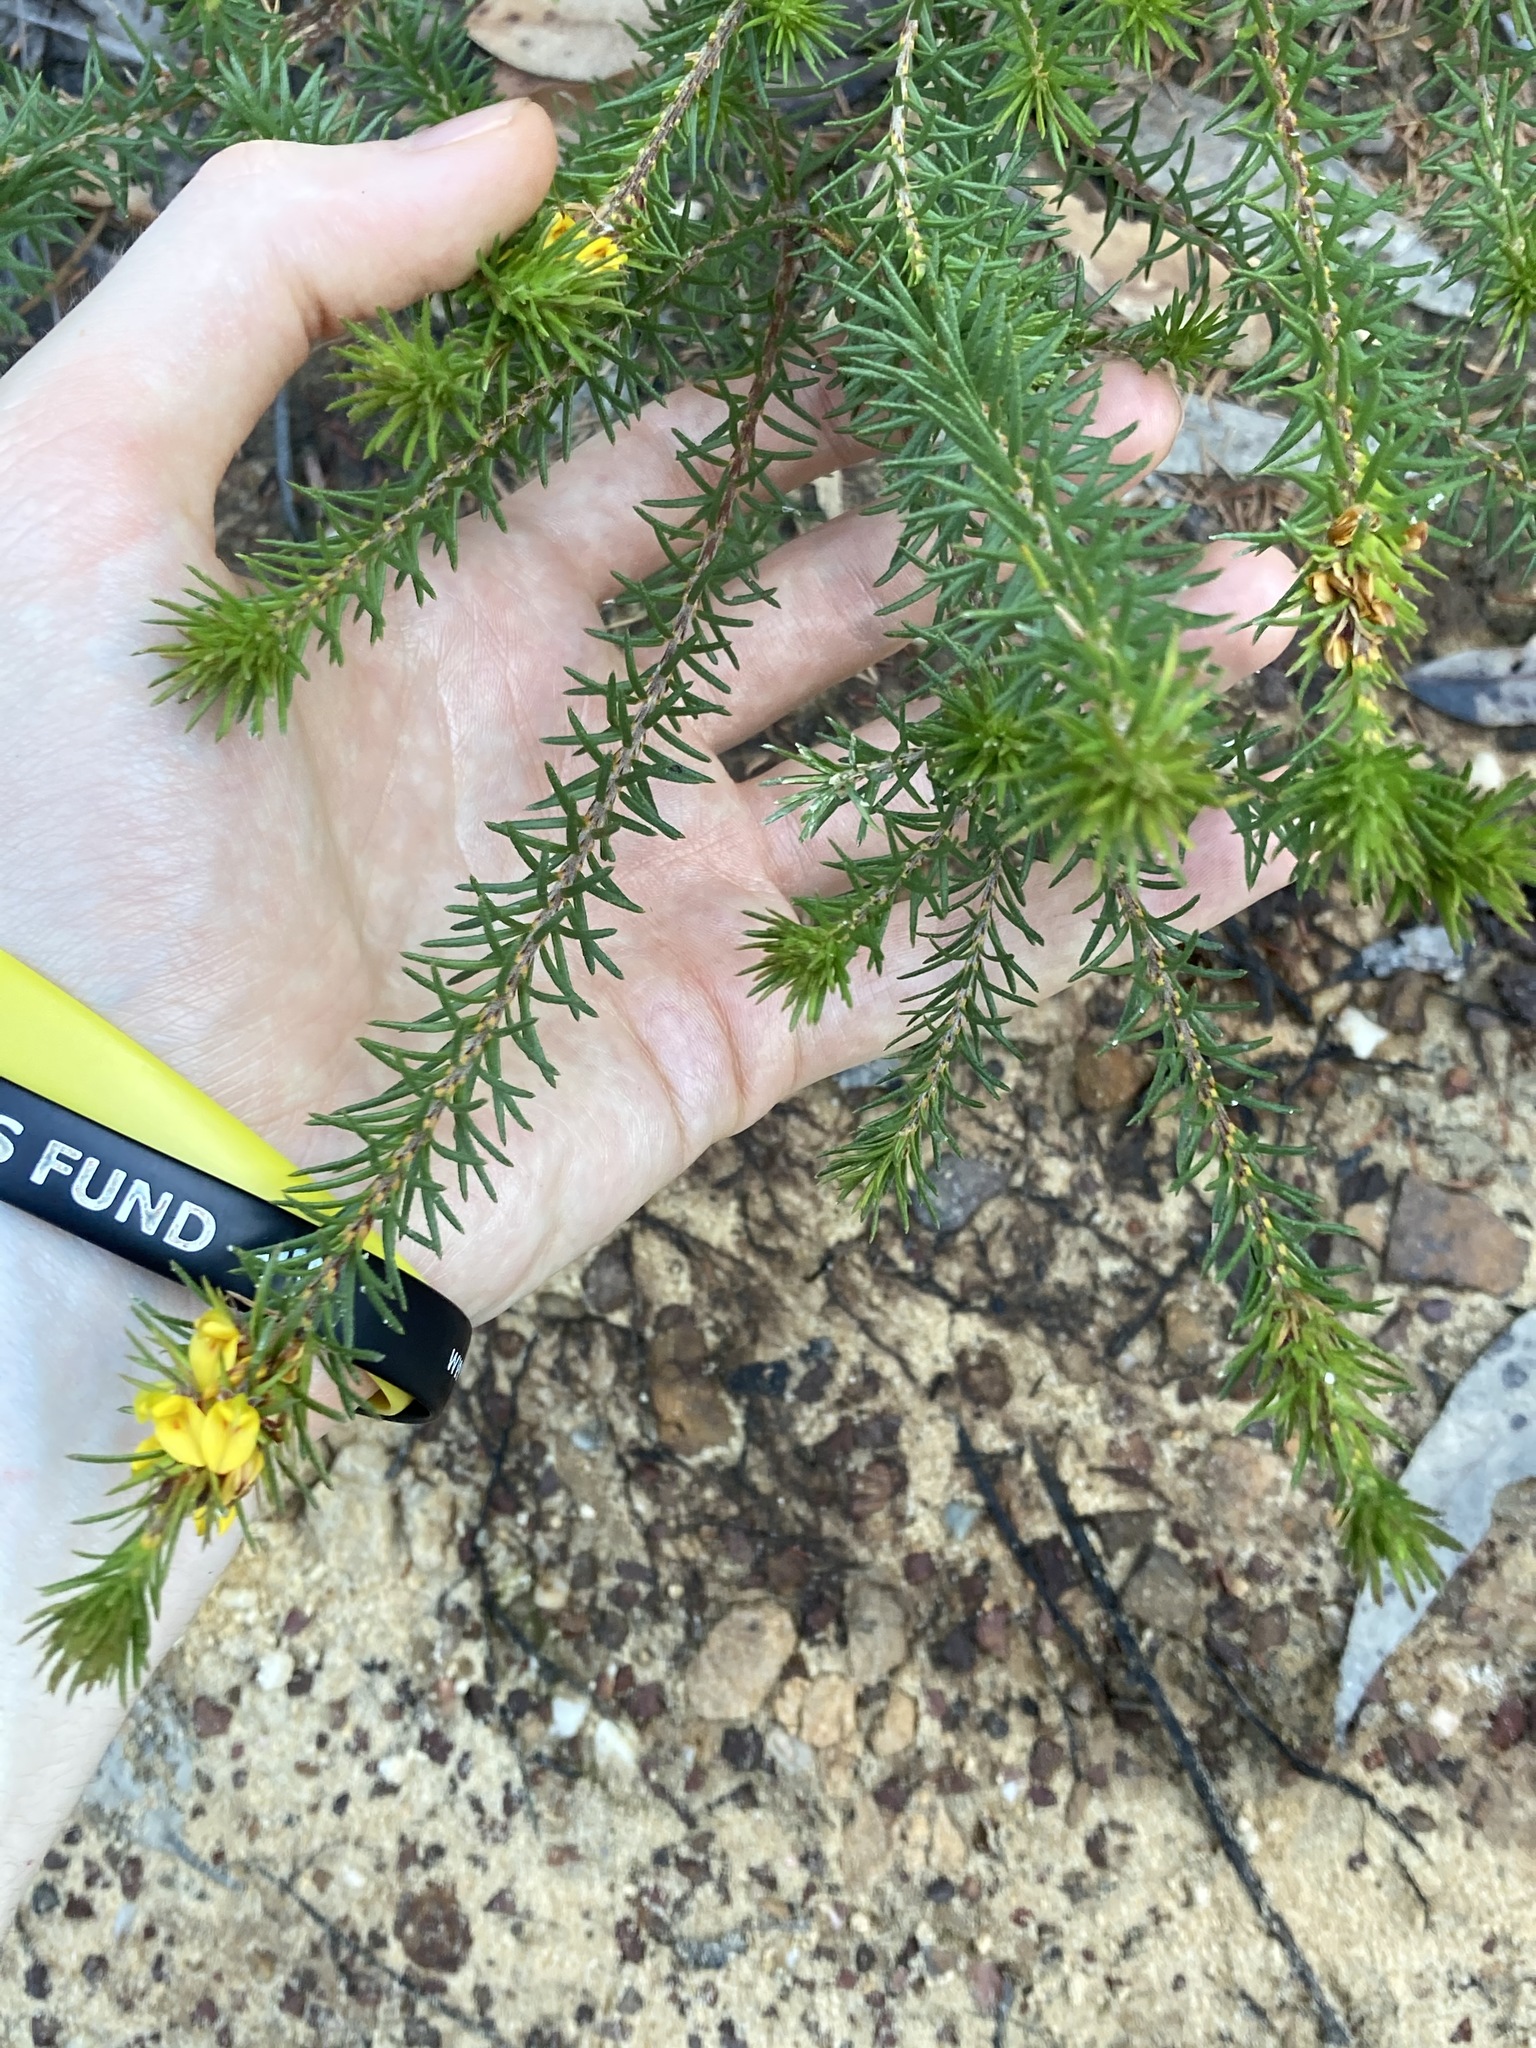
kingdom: Plantae
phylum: Tracheophyta
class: Magnoliopsida
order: Fabales
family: Fabaceae
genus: Phyllota
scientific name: Phyllota phylicoides
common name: Heath phyllota
